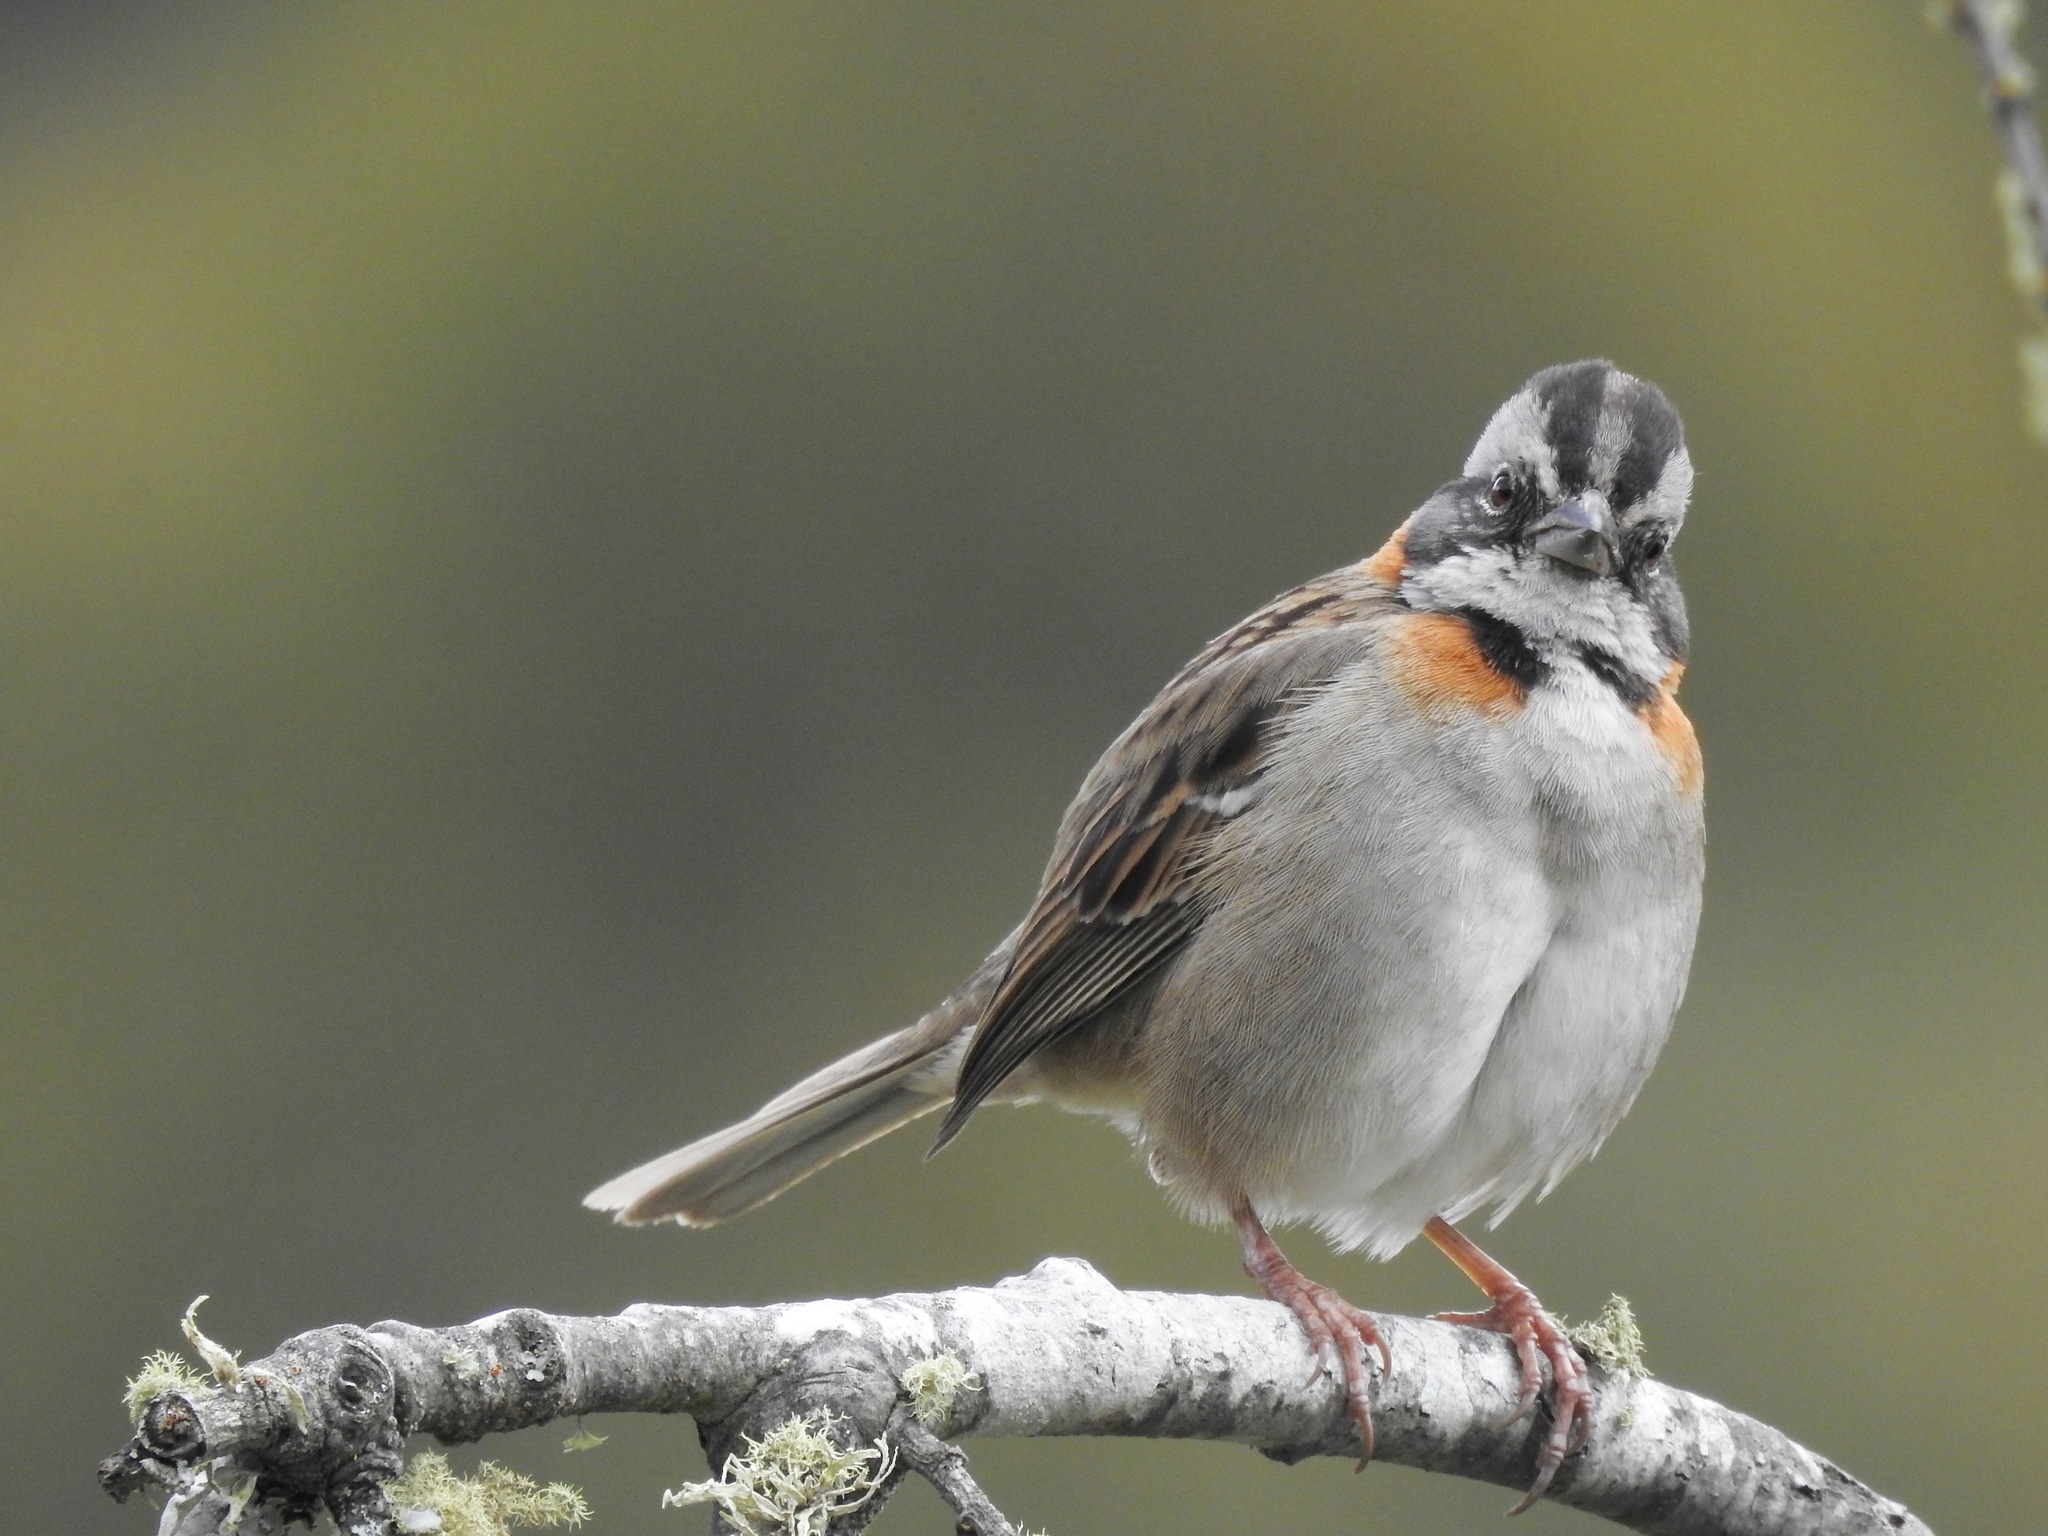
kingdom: Animalia
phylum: Chordata
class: Aves
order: Passeriformes
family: Passerellidae
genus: Zonotrichia
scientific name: Zonotrichia capensis
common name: Rufous-collared sparrow
